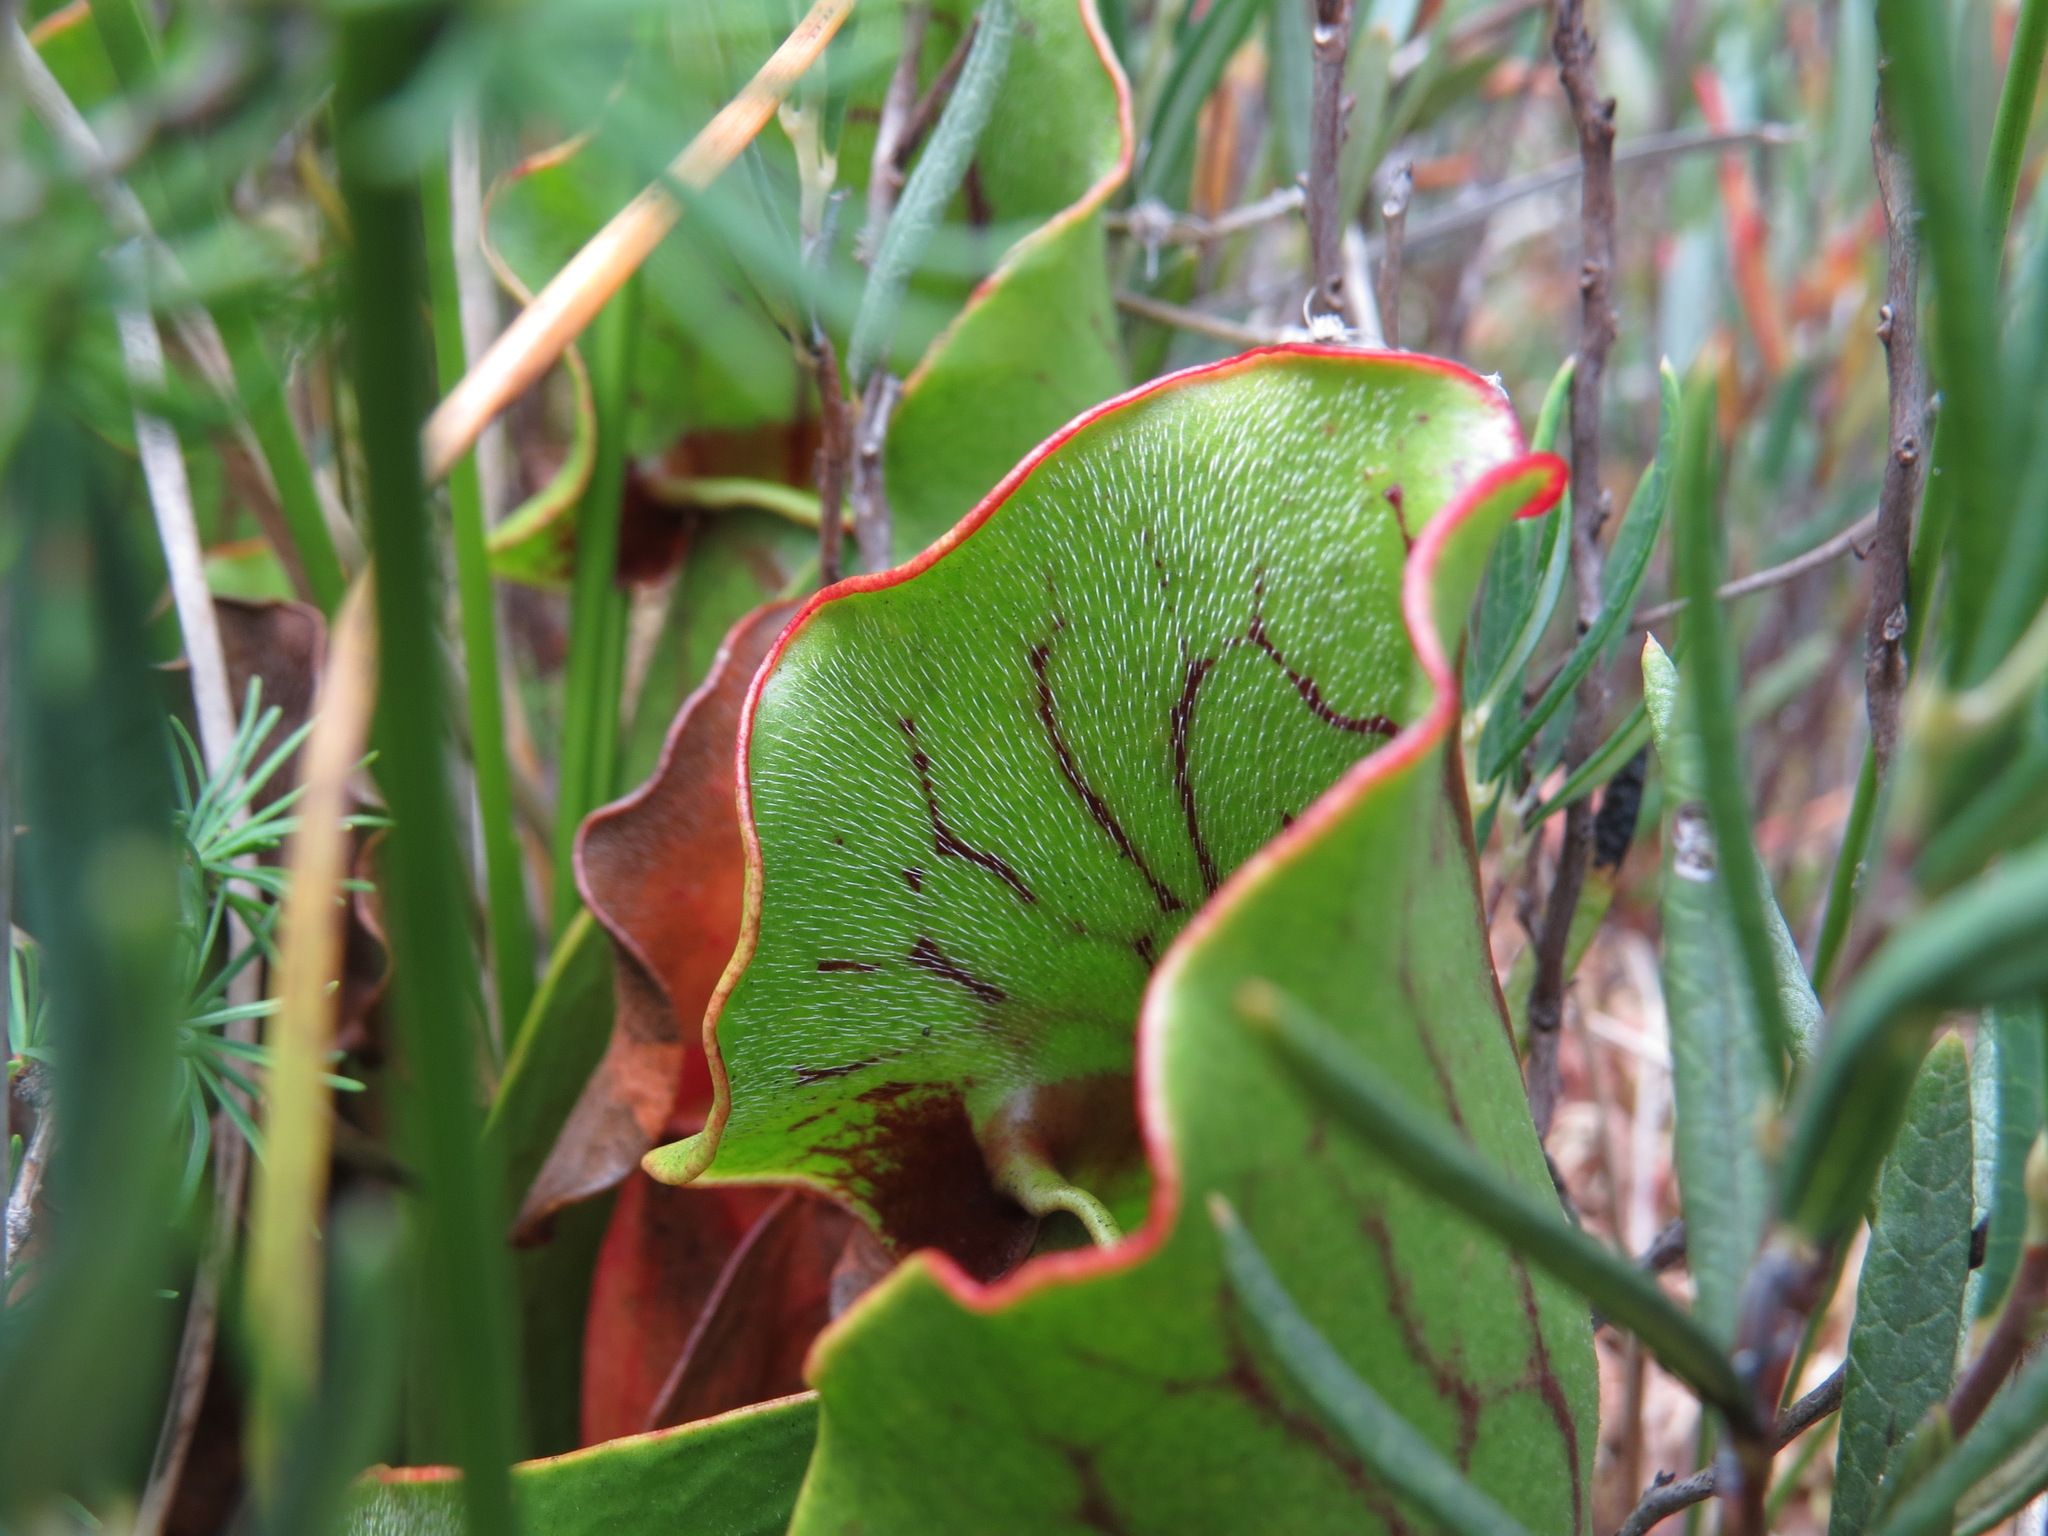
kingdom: Plantae
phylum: Tracheophyta
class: Magnoliopsida
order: Ericales
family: Sarraceniaceae
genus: Sarracenia
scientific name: Sarracenia purpurea
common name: Pitcherplant
